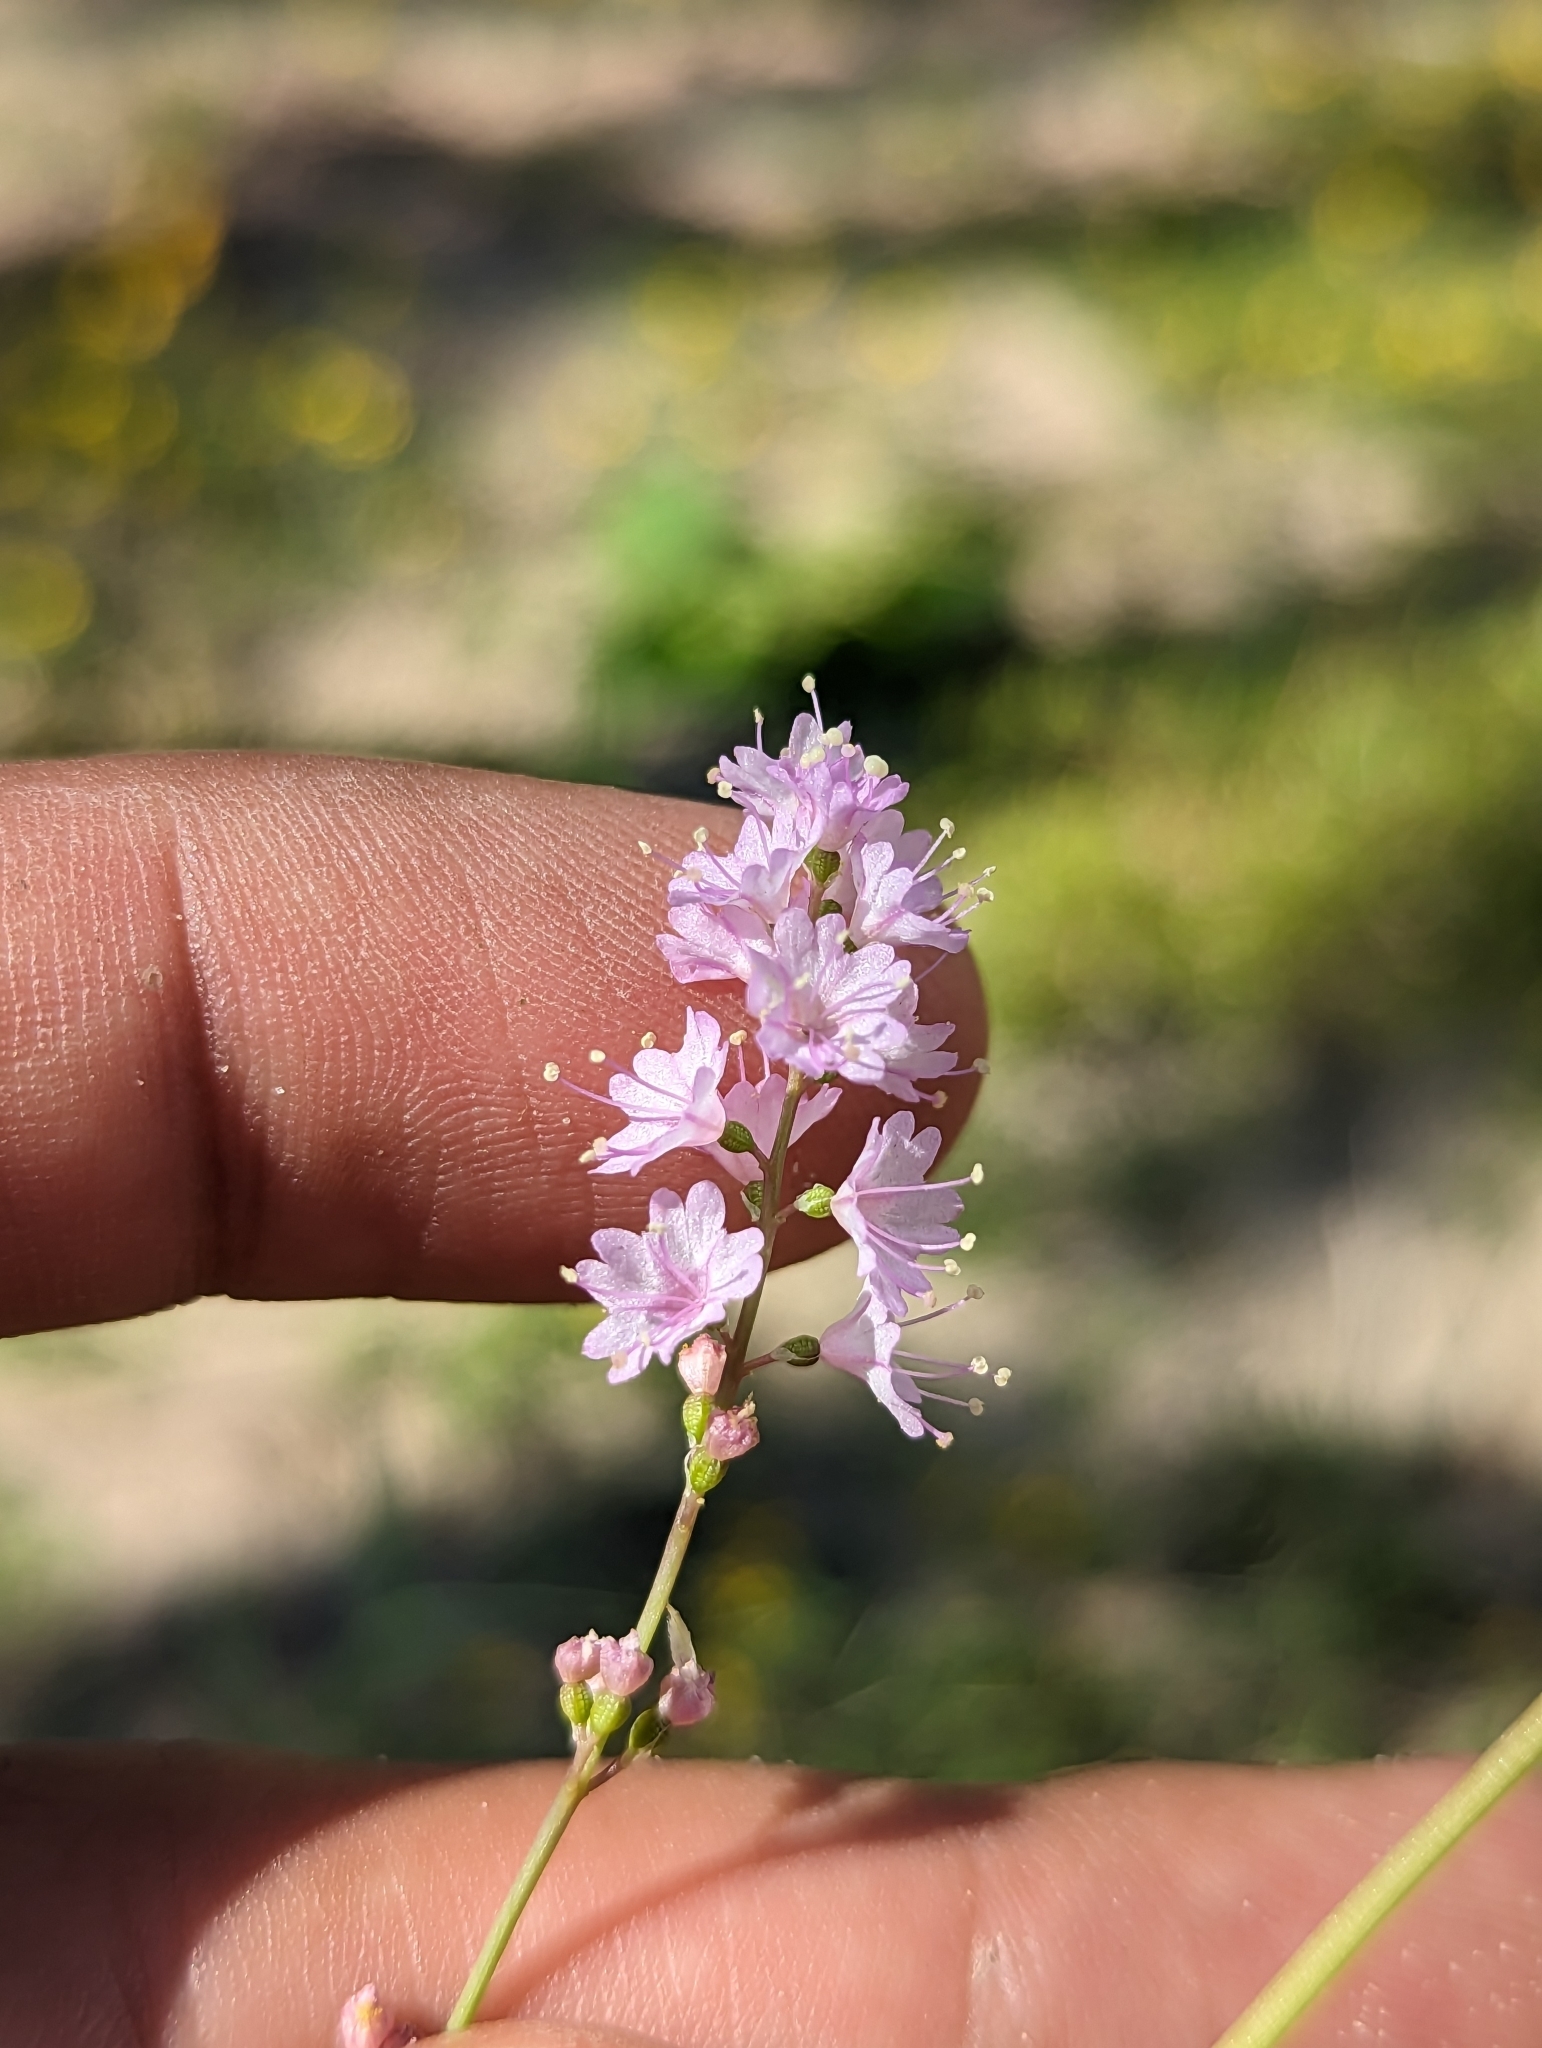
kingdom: Plantae
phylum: Tracheophyta
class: Magnoliopsida
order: Caryophyllales
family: Nyctaginaceae
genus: Boerhavia
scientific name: Boerhavia xantii
